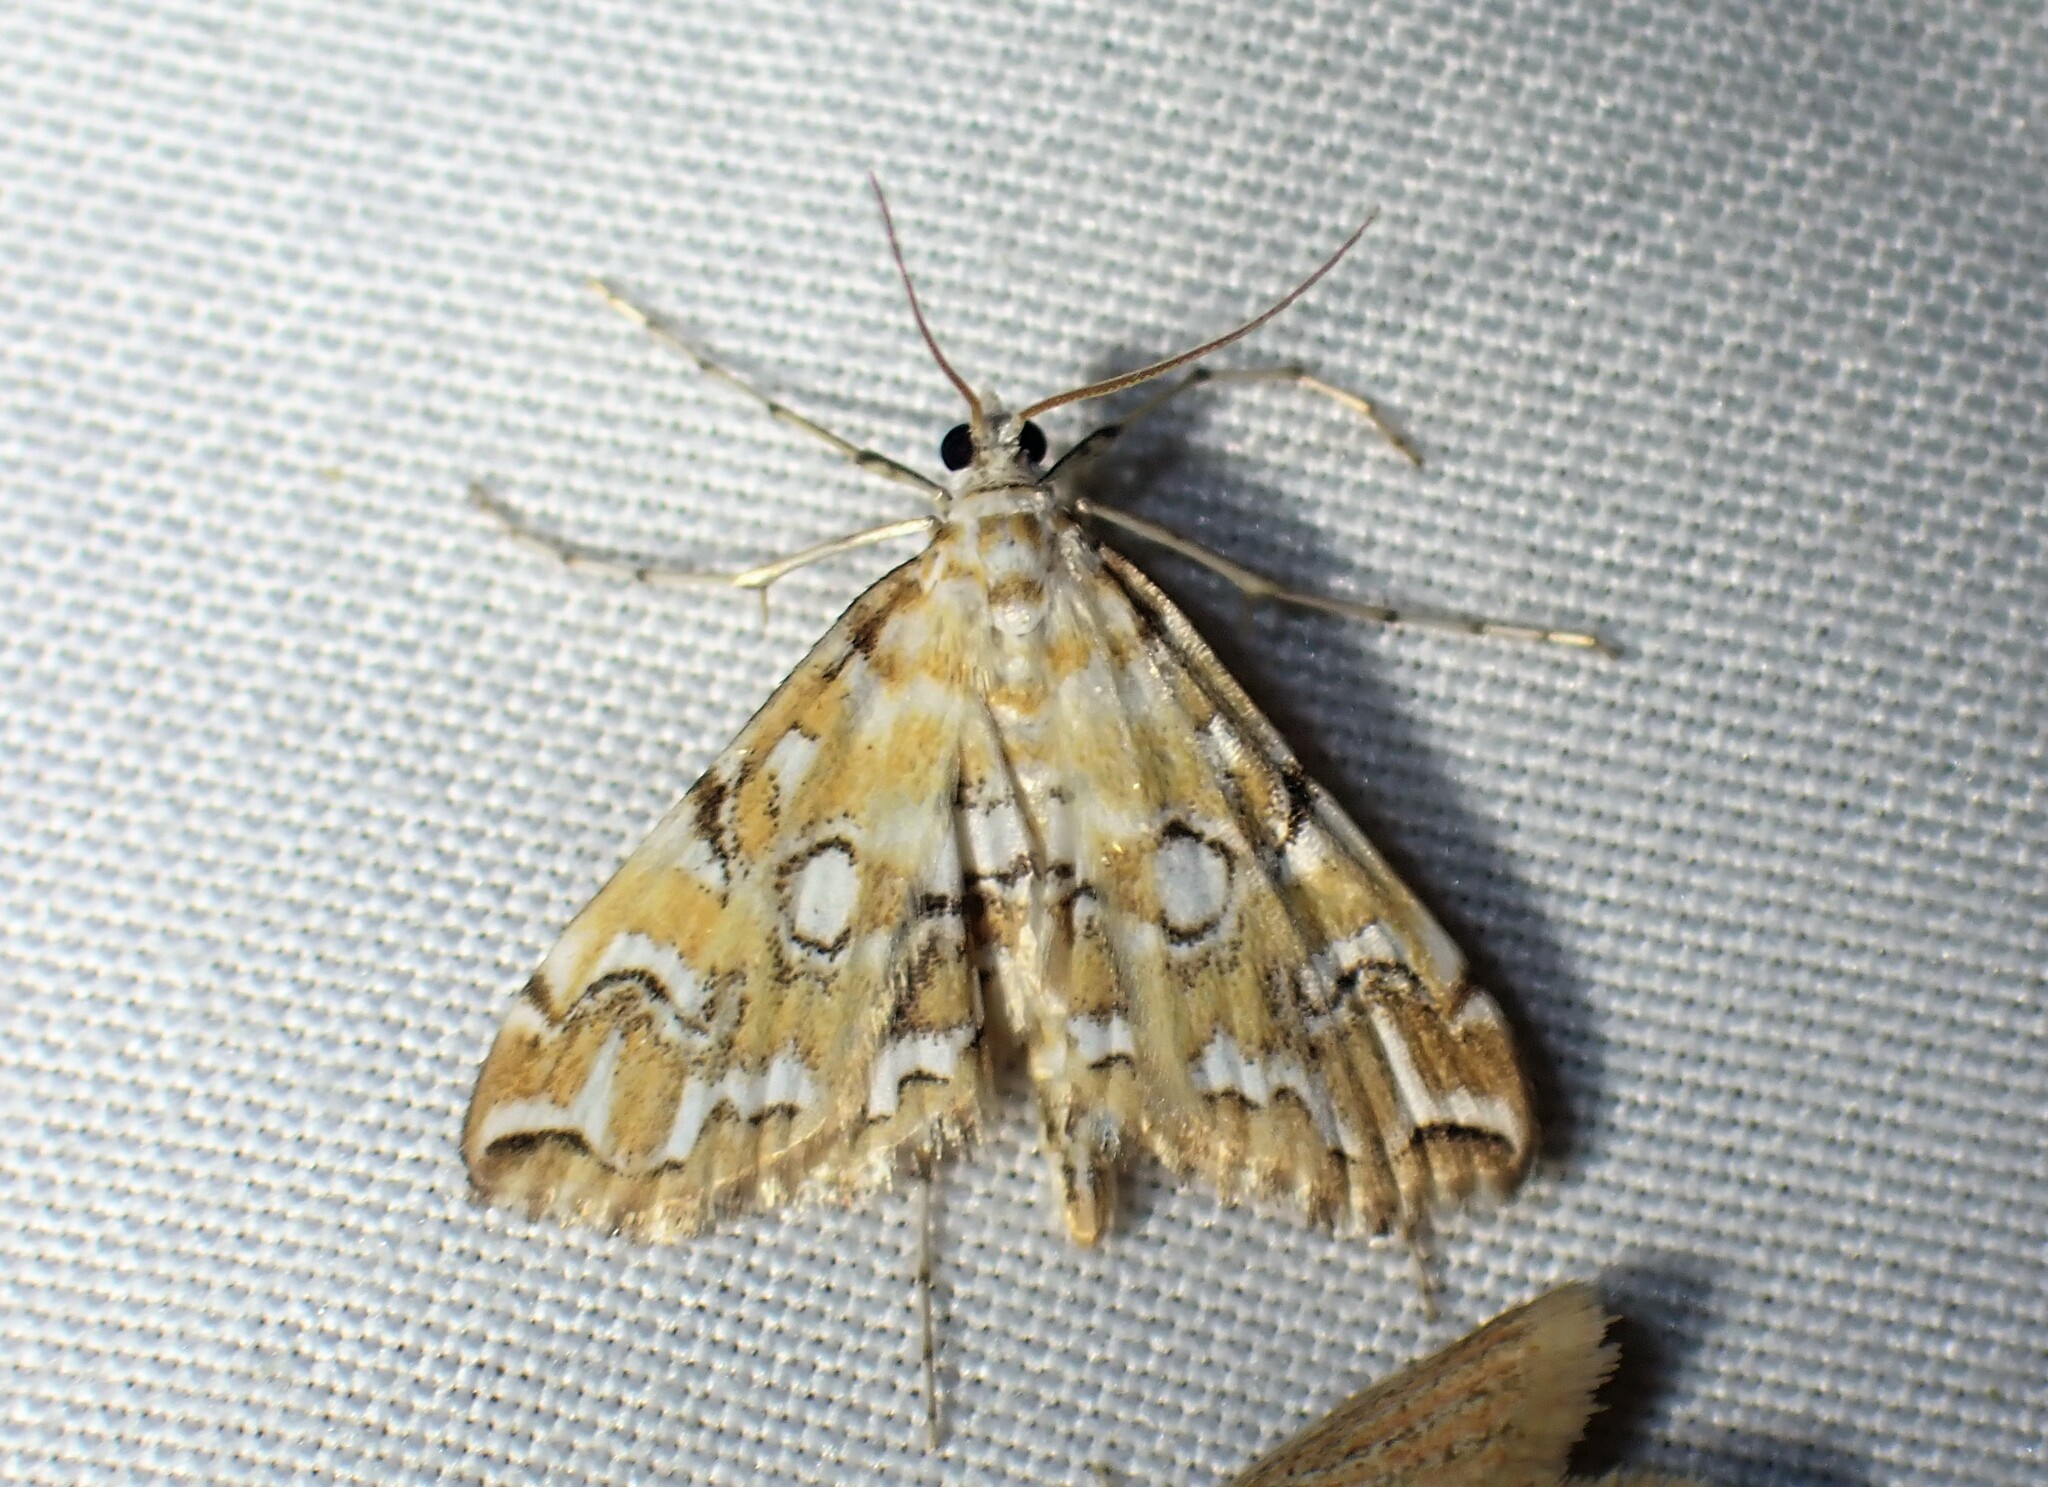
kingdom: Animalia
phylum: Arthropoda
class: Insecta
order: Lepidoptera
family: Crambidae
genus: Elophila
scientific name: Elophila icciusalis
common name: Pondside pyralid moth
